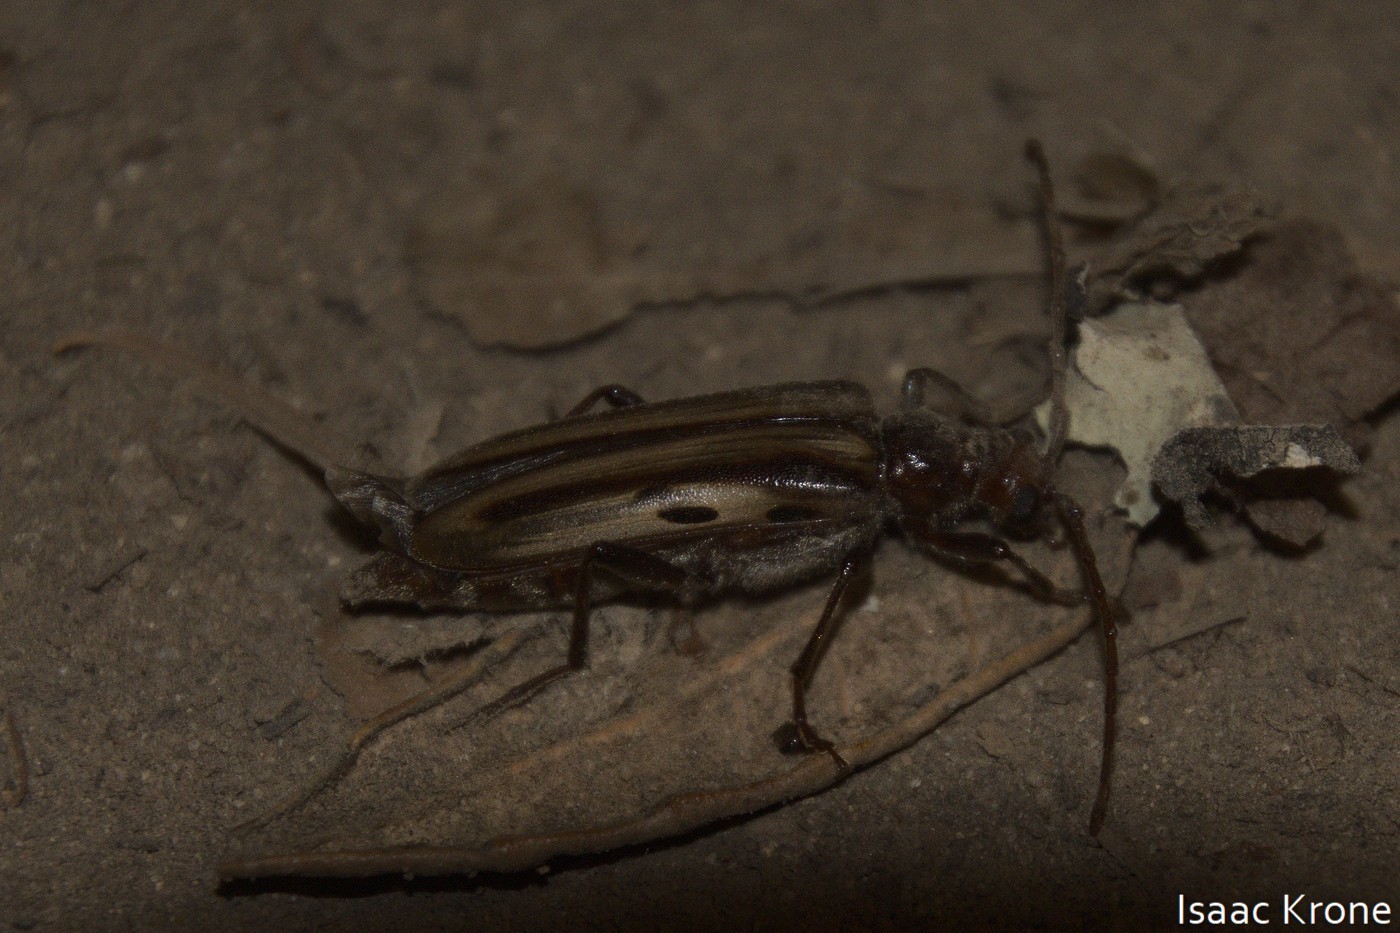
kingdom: Animalia
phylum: Arthropoda
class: Insecta
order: Coleoptera
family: Cerambycidae
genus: Ortholeptura
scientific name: Ortholeptura insignis
